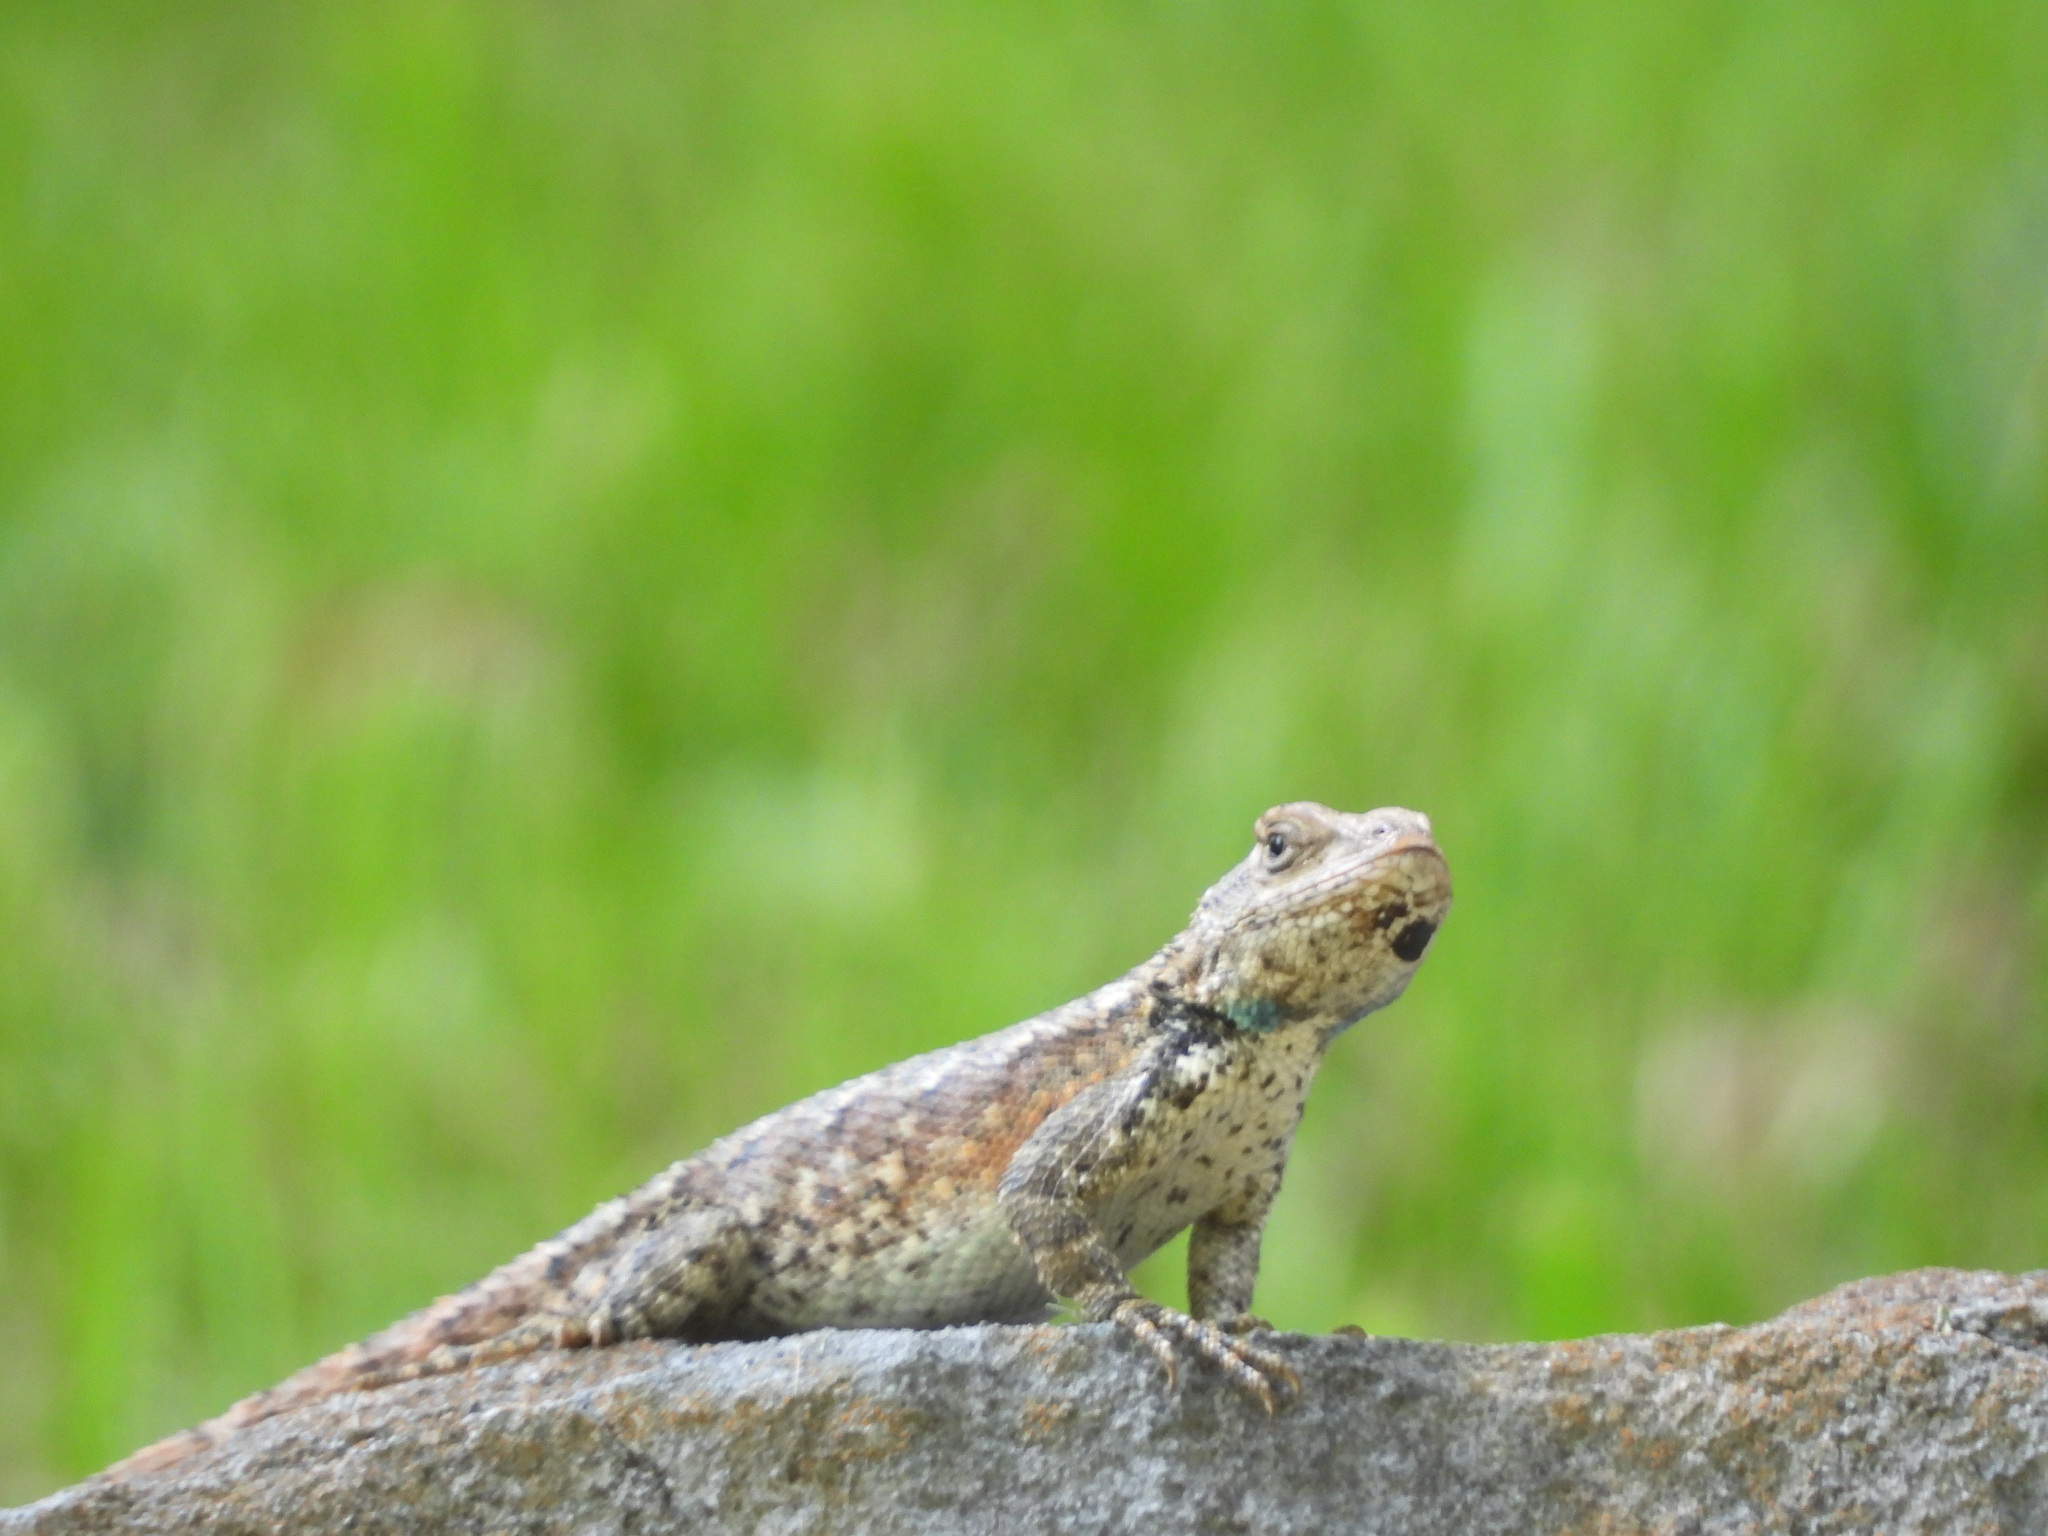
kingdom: Animalia
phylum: Chordata
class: Squamata
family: Phrynosomatidae
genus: Sceloporus
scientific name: Sceloporus undulatus
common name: Eastern fence lizard
